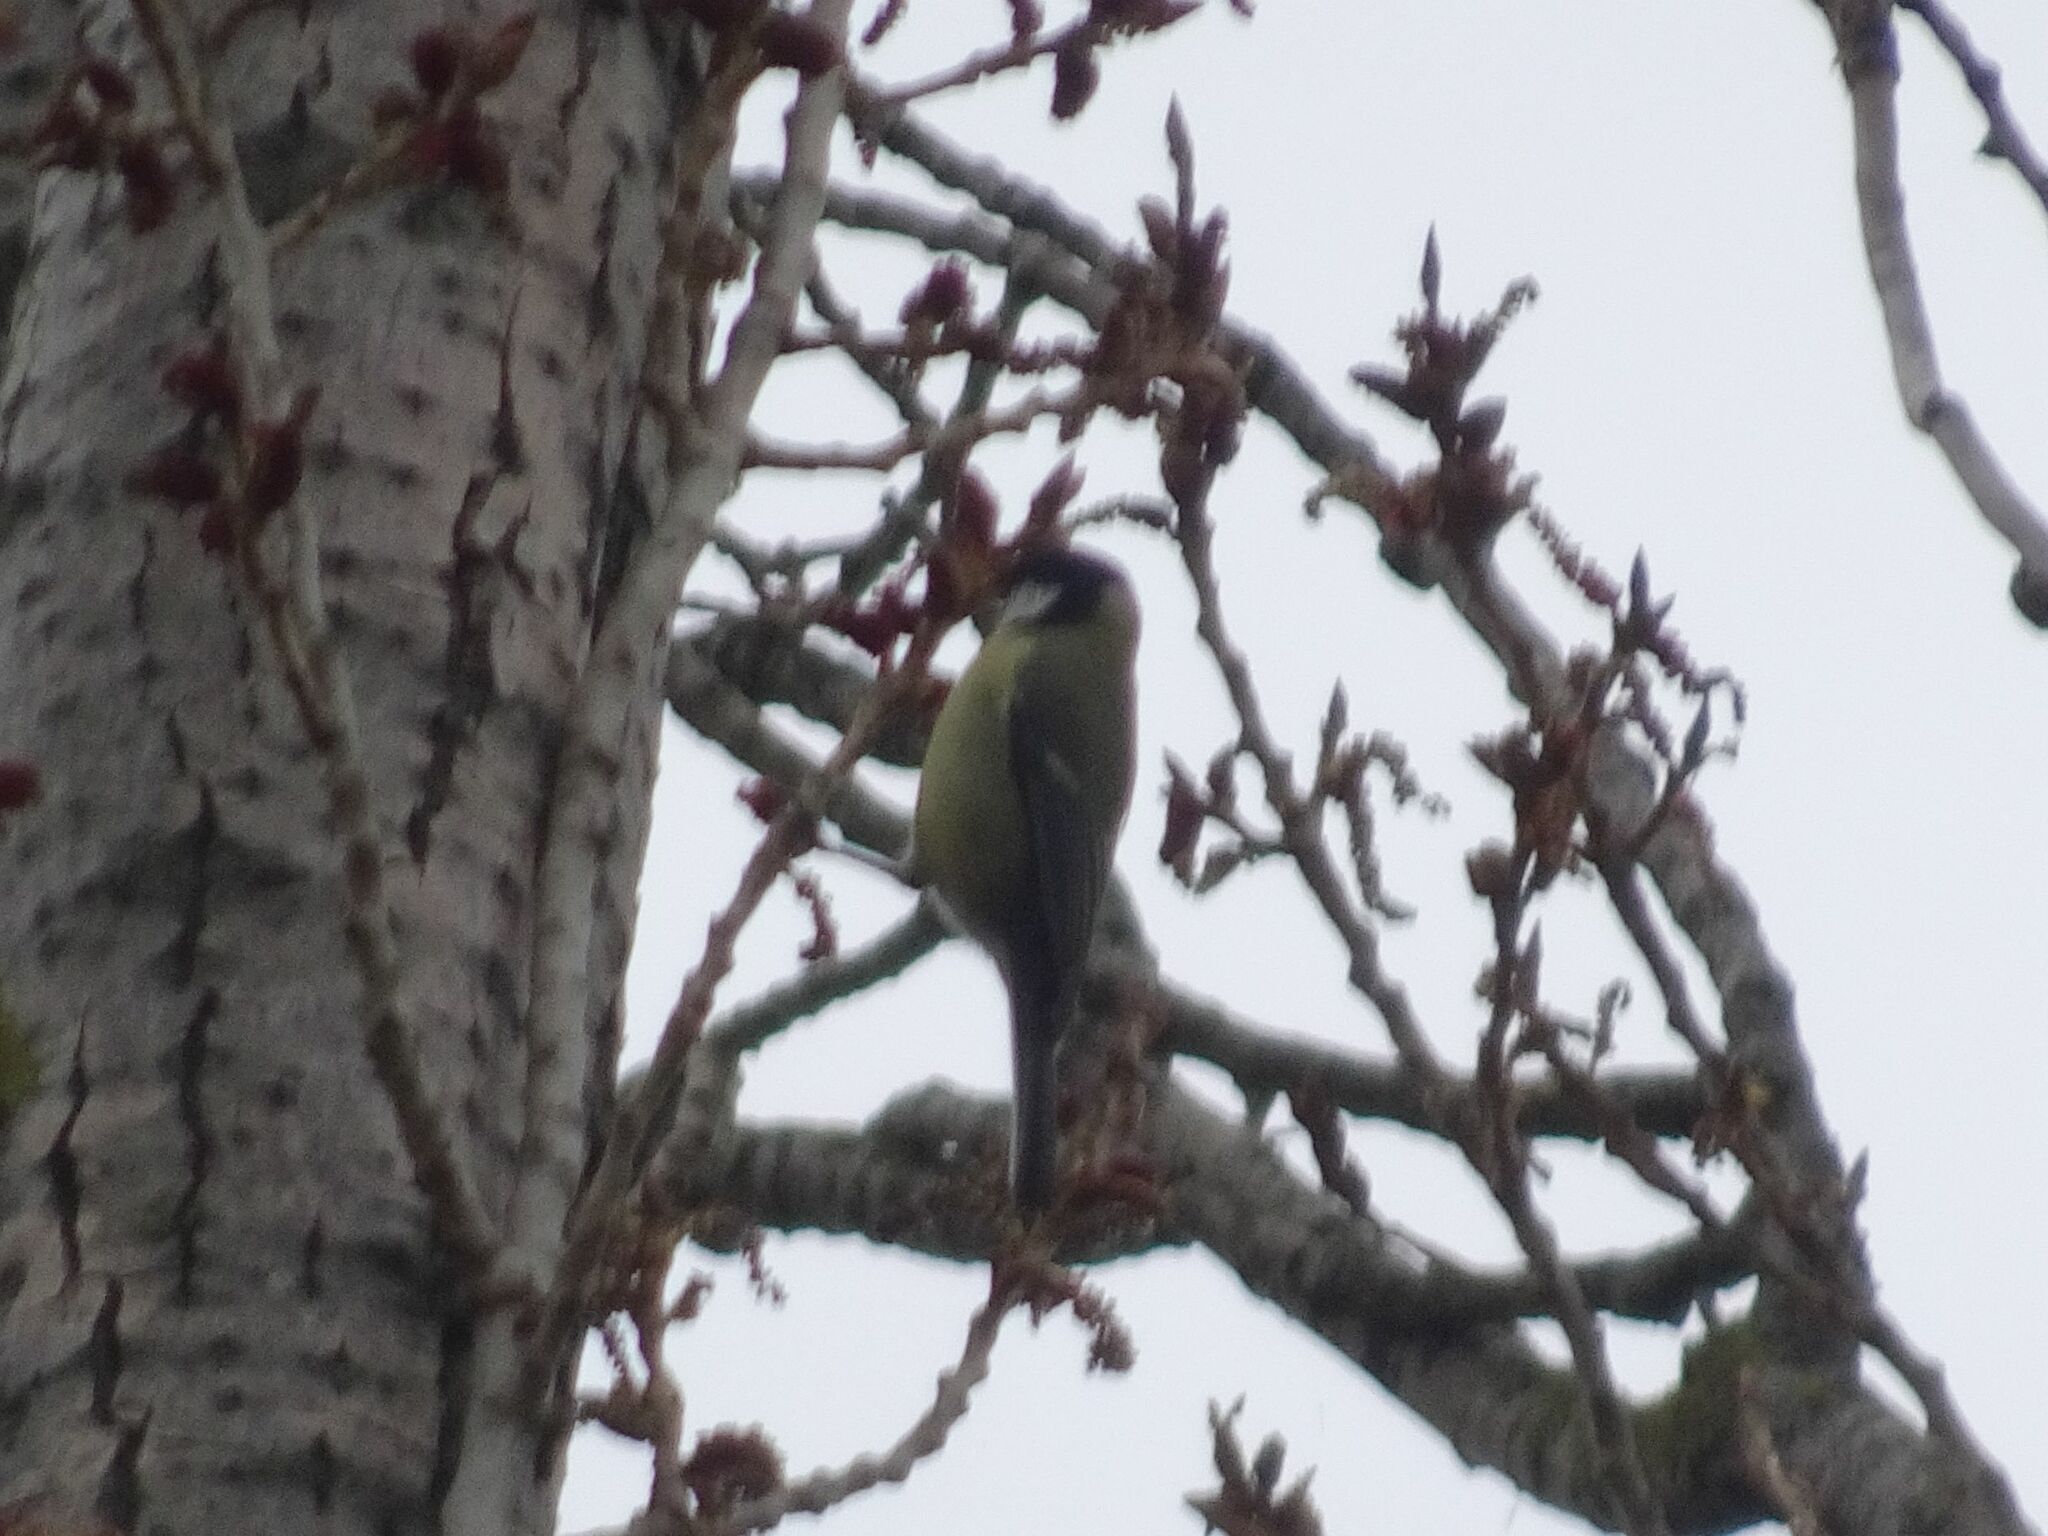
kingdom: Animalia
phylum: Chordata
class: Aves
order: Passeriformes
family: Paridae
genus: Parus
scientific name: Parus major
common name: Great tit
